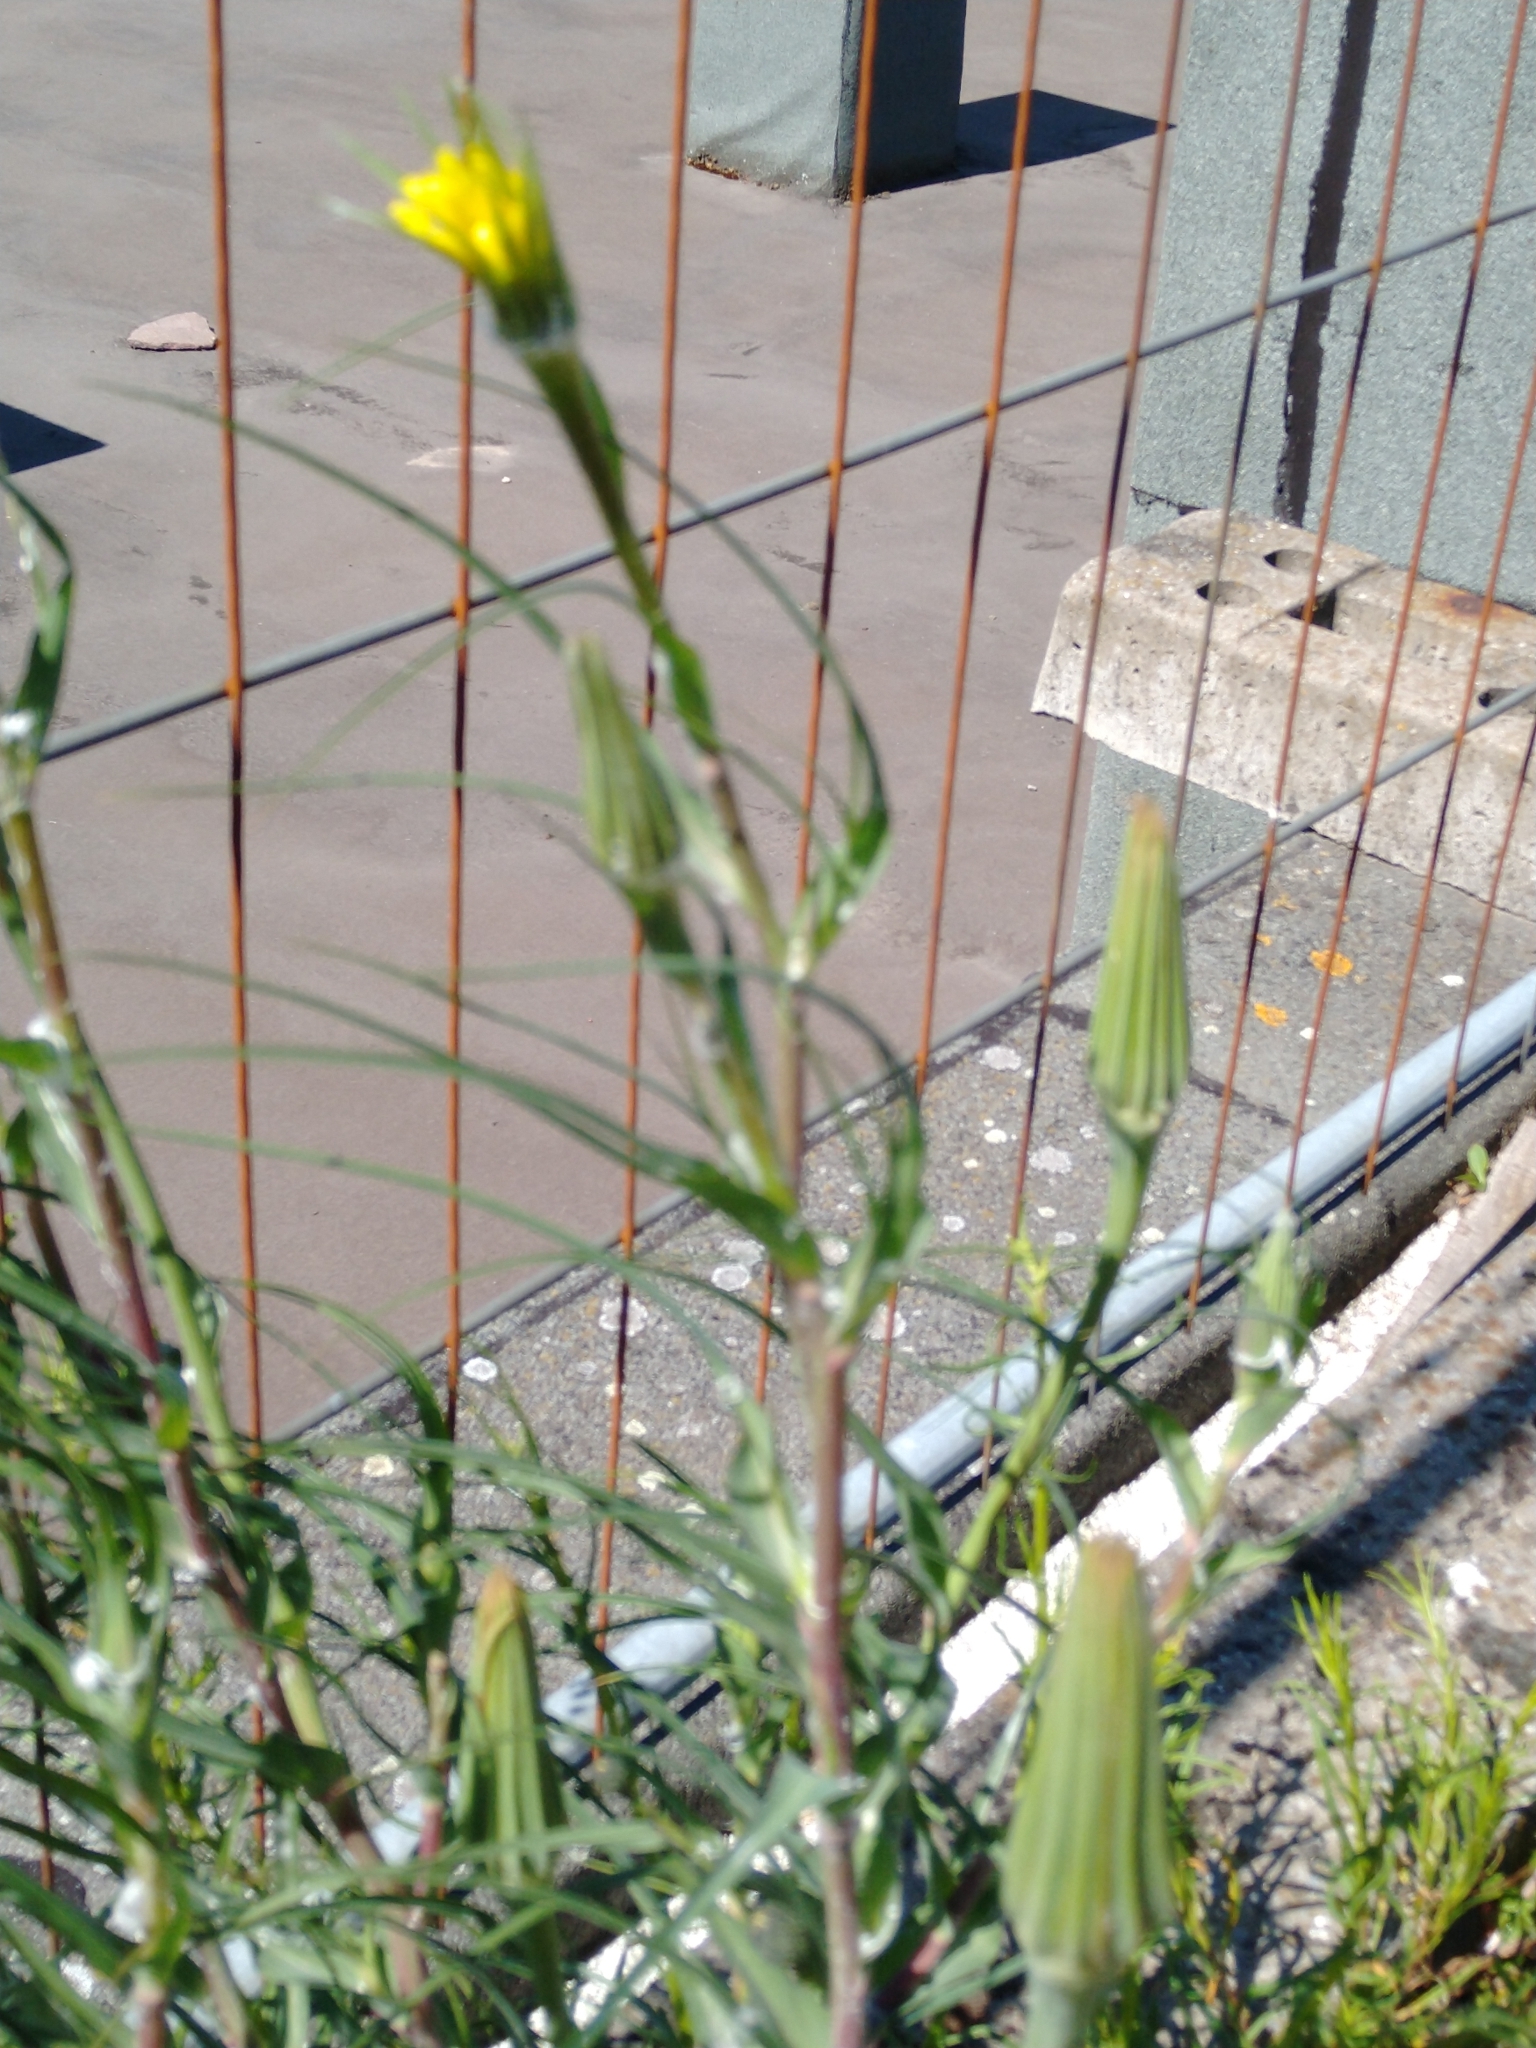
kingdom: Plantae
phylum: Tracheophyta
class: Magnoliopsida
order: Asterales
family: Asteraceae
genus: Tragopogon
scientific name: Tragopogon dubius
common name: Yellow salsify
